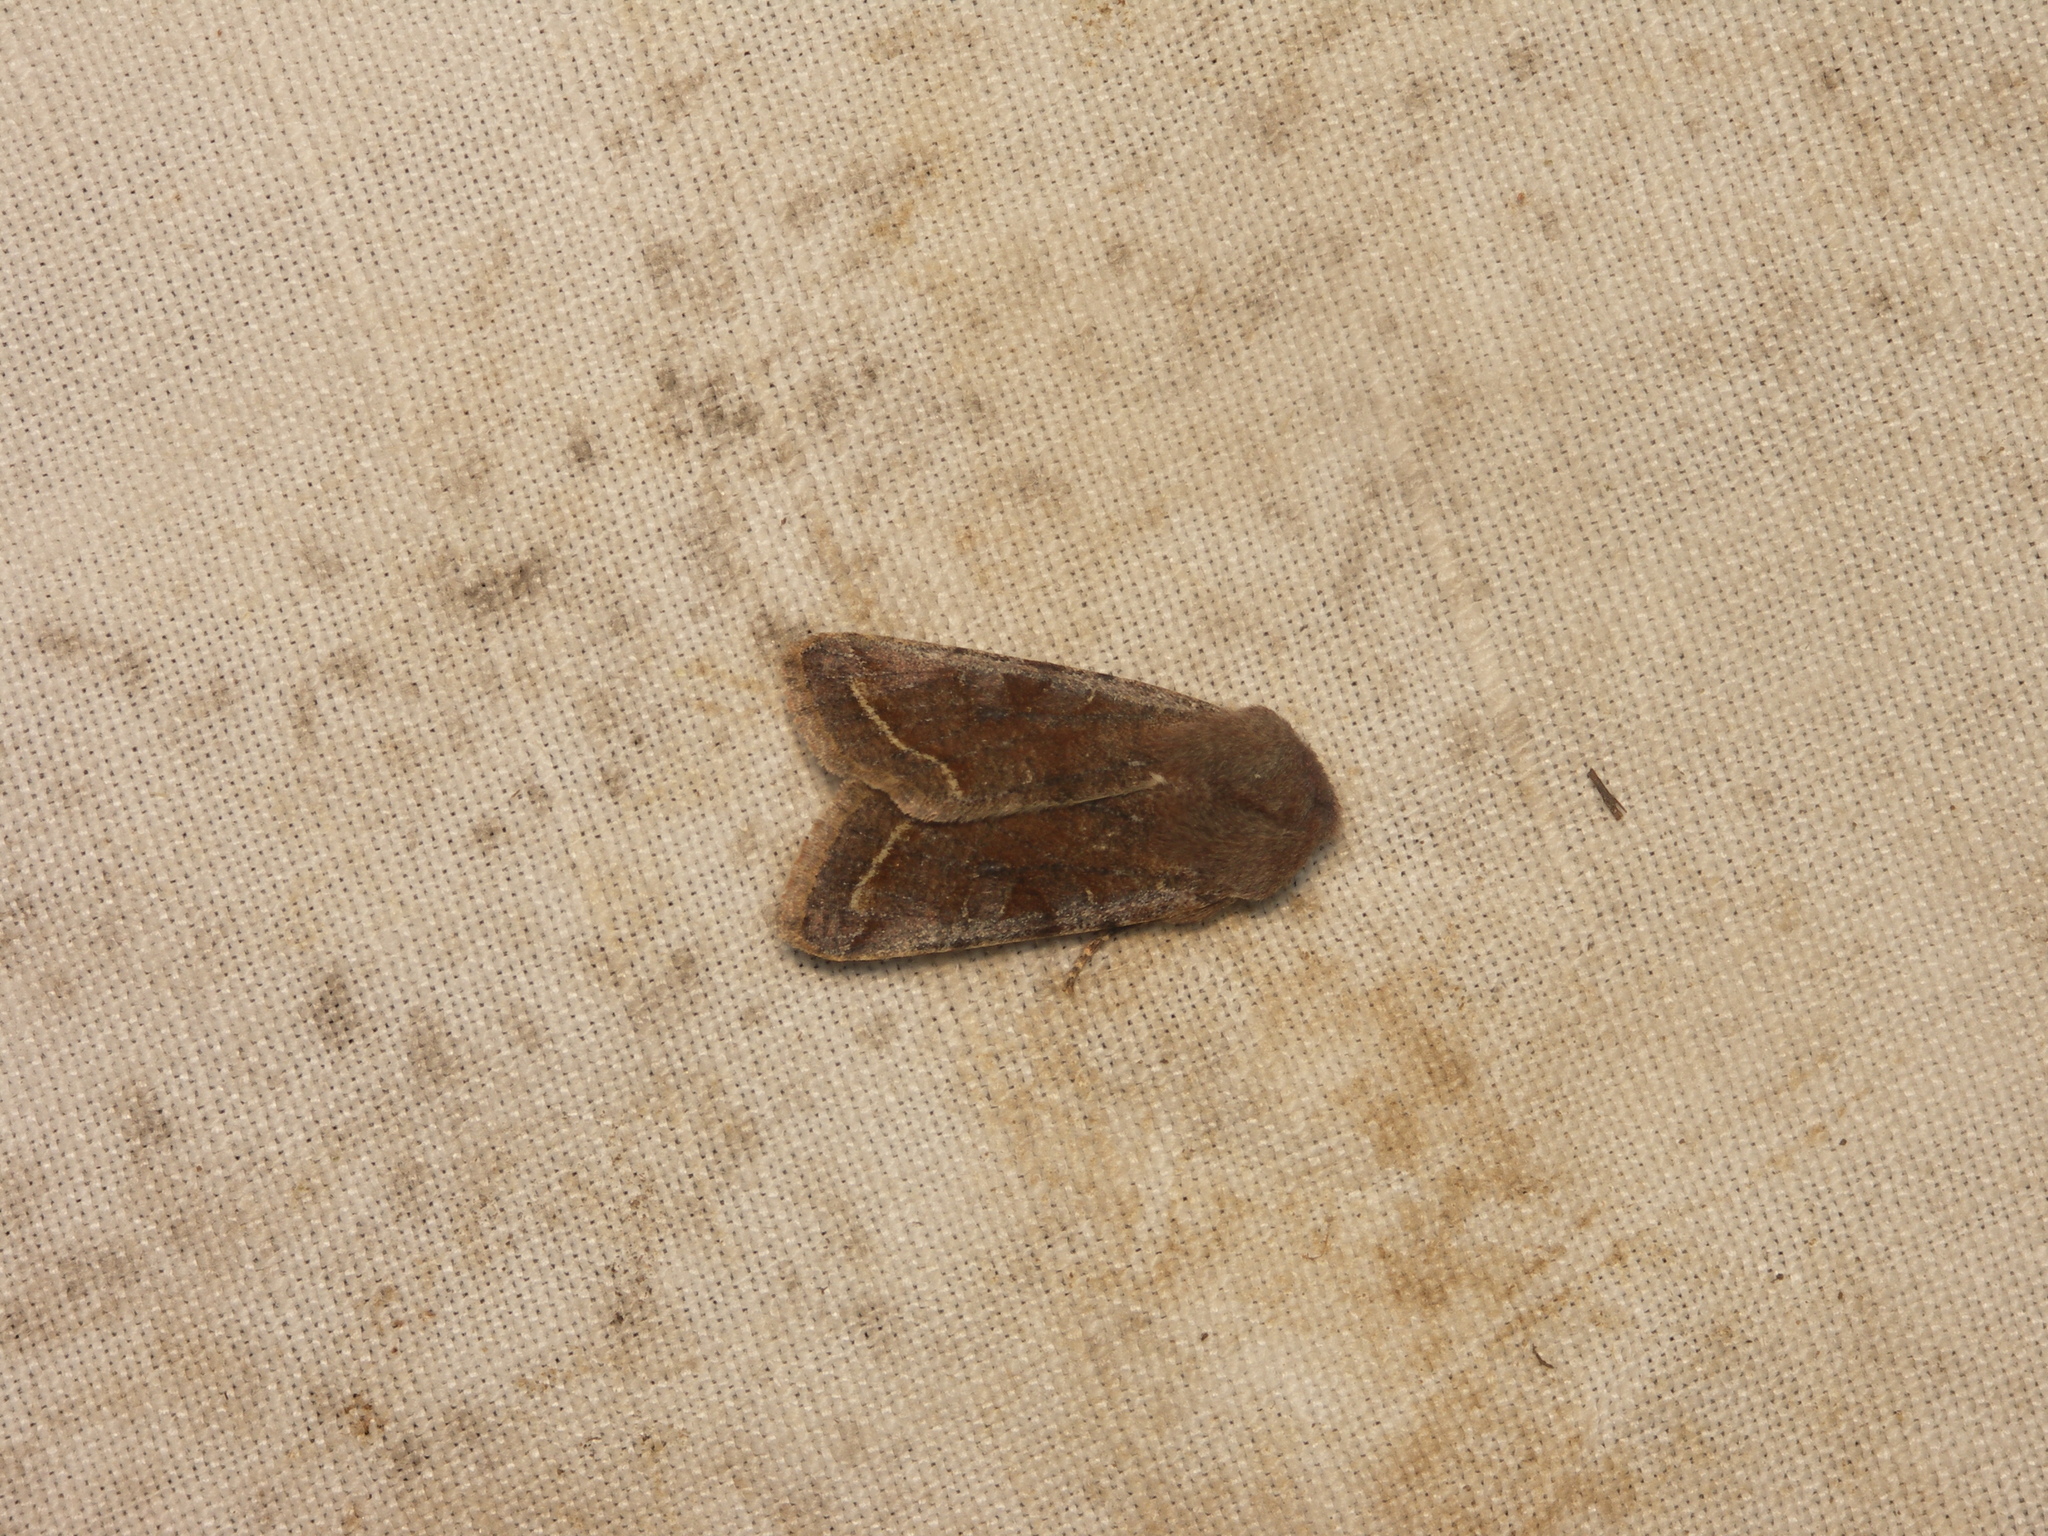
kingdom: Animalia
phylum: Arthropoda
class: Insecta
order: Lepidoptera
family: Noctuidae
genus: Orthosia
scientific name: Orthosia incerta
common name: Clouded drab
